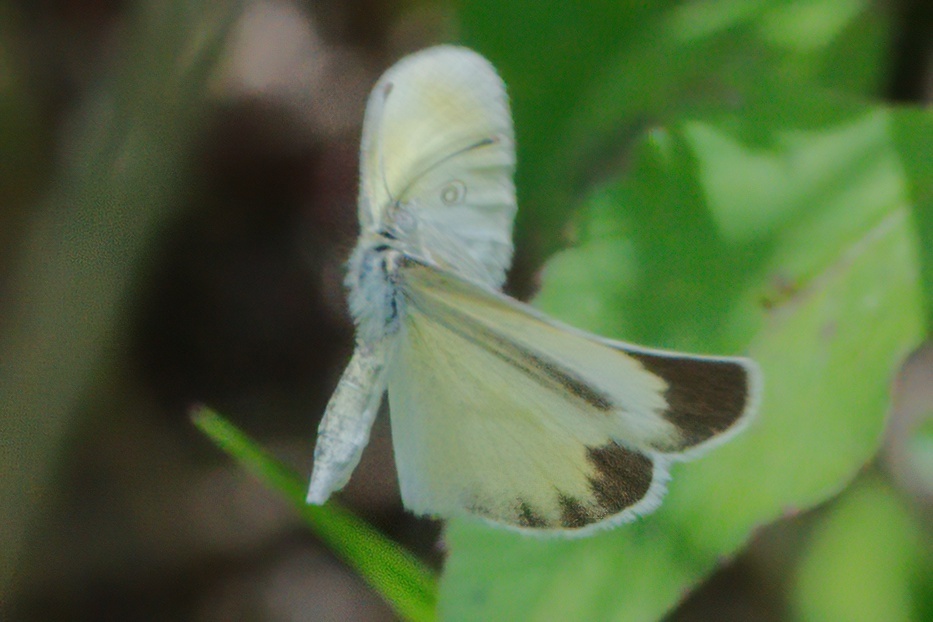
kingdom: Animalia
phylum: Arthropoda
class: Insecta
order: Lepidoptera
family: Pieridae
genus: Eurema
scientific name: Eurema daira
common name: Barred sulphur
